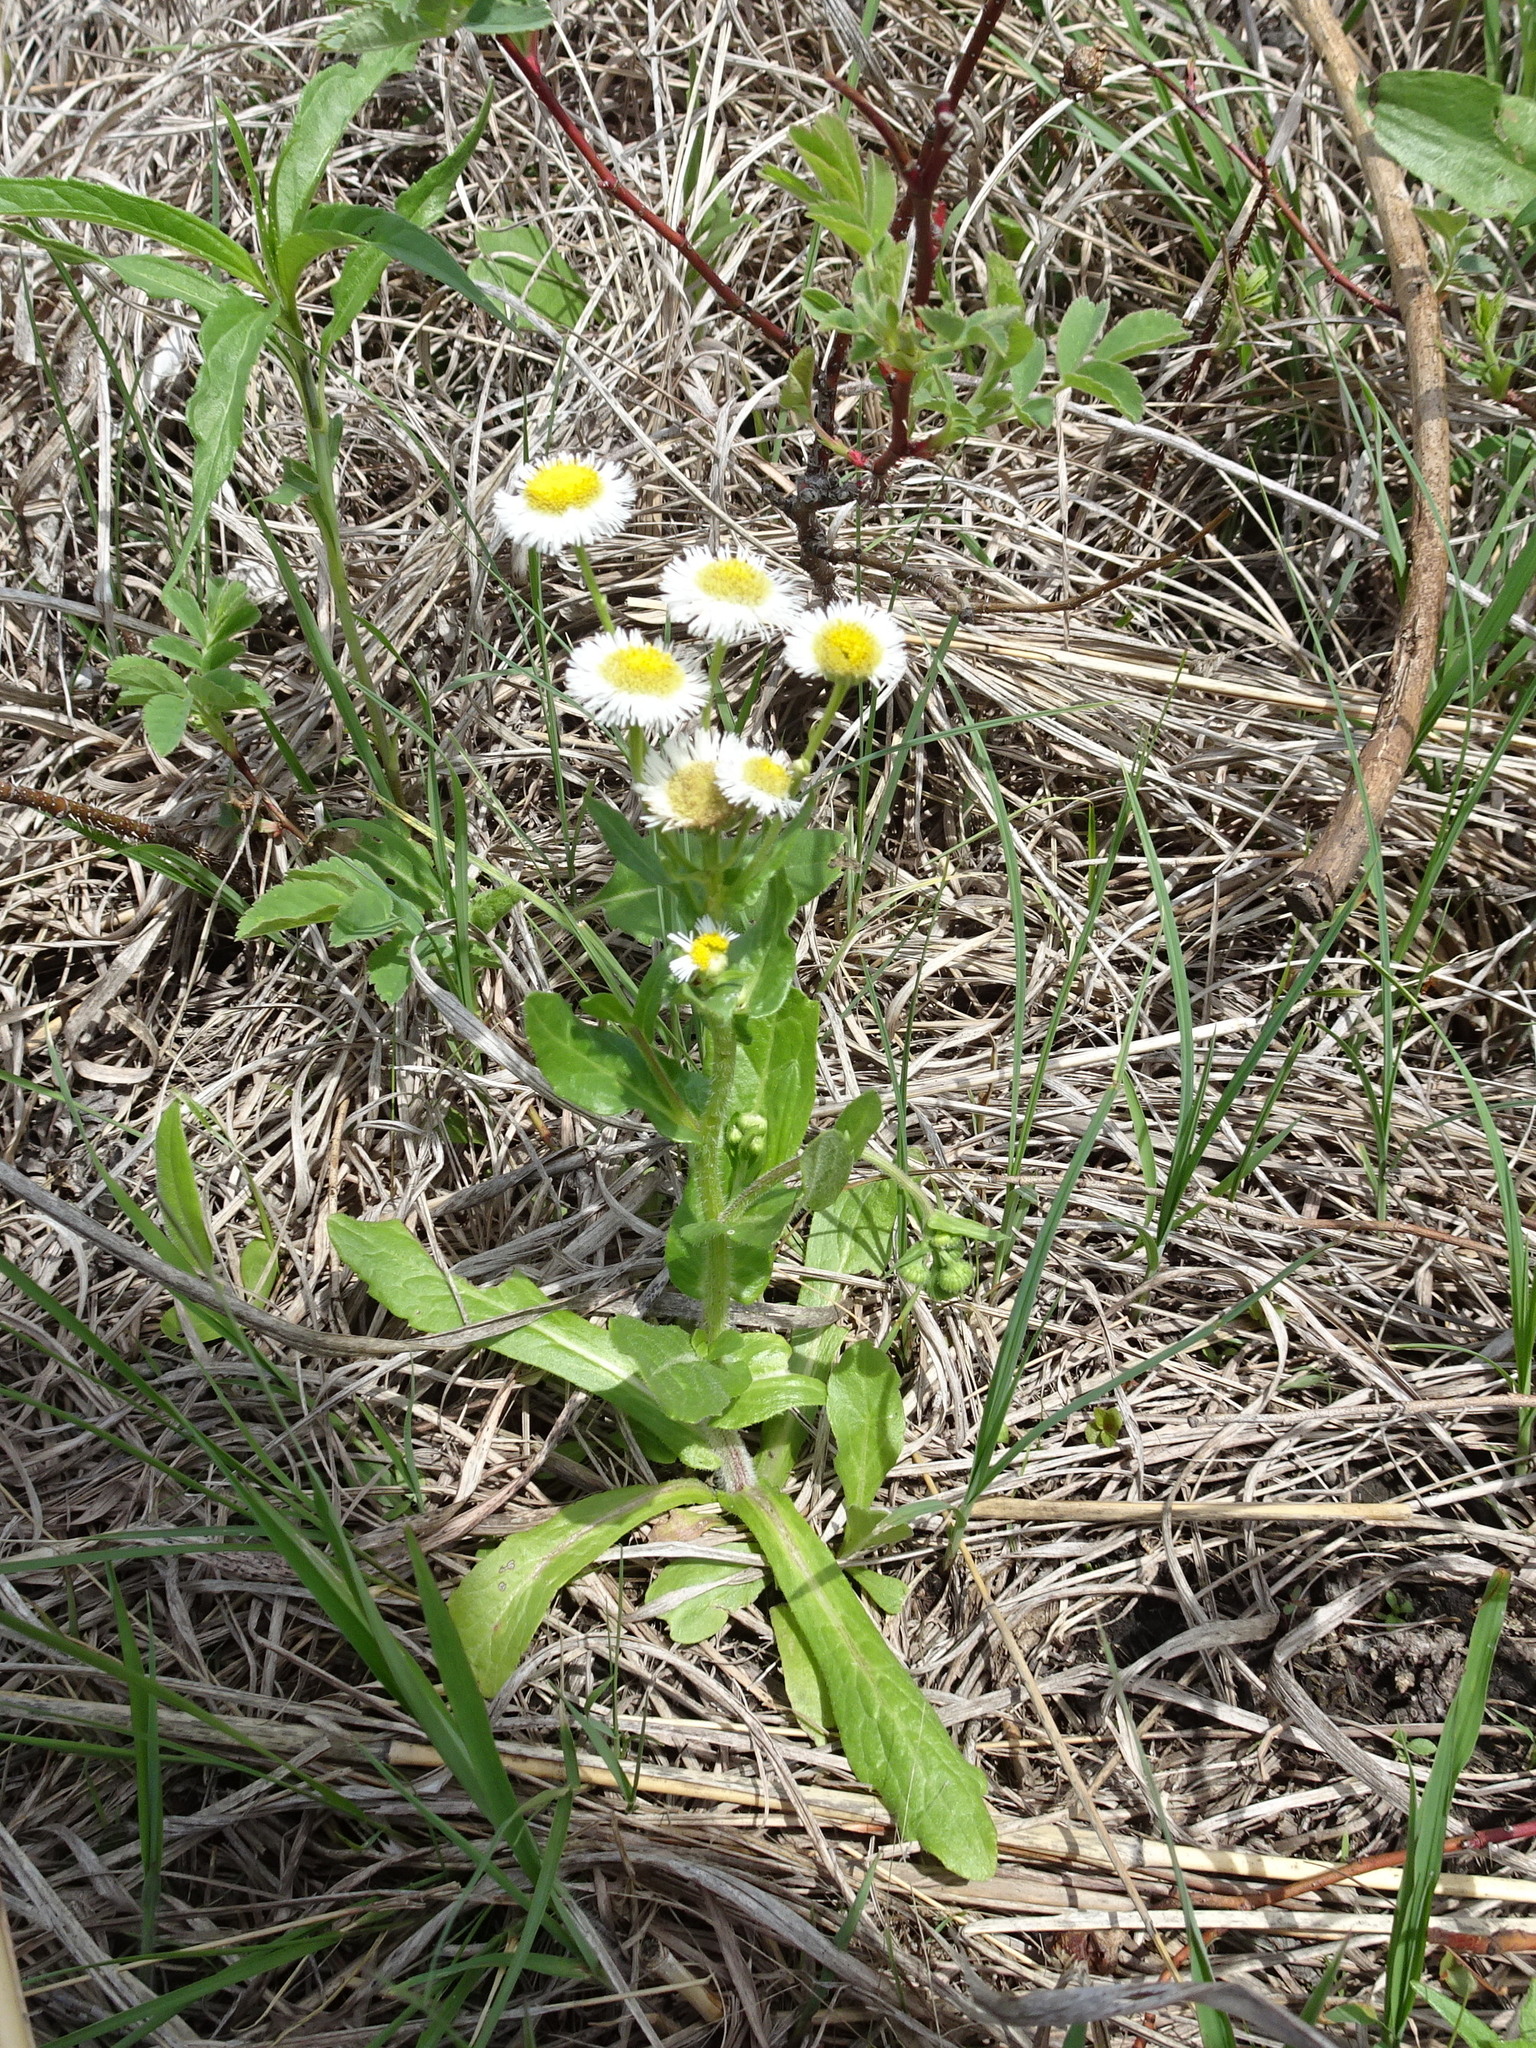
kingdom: Plantae
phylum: Tracheophyta
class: Magnoliopsida
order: Asterales
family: Asteraceae
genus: Erigeron
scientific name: Erigeron philadelphicus
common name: Robin's-plantain
